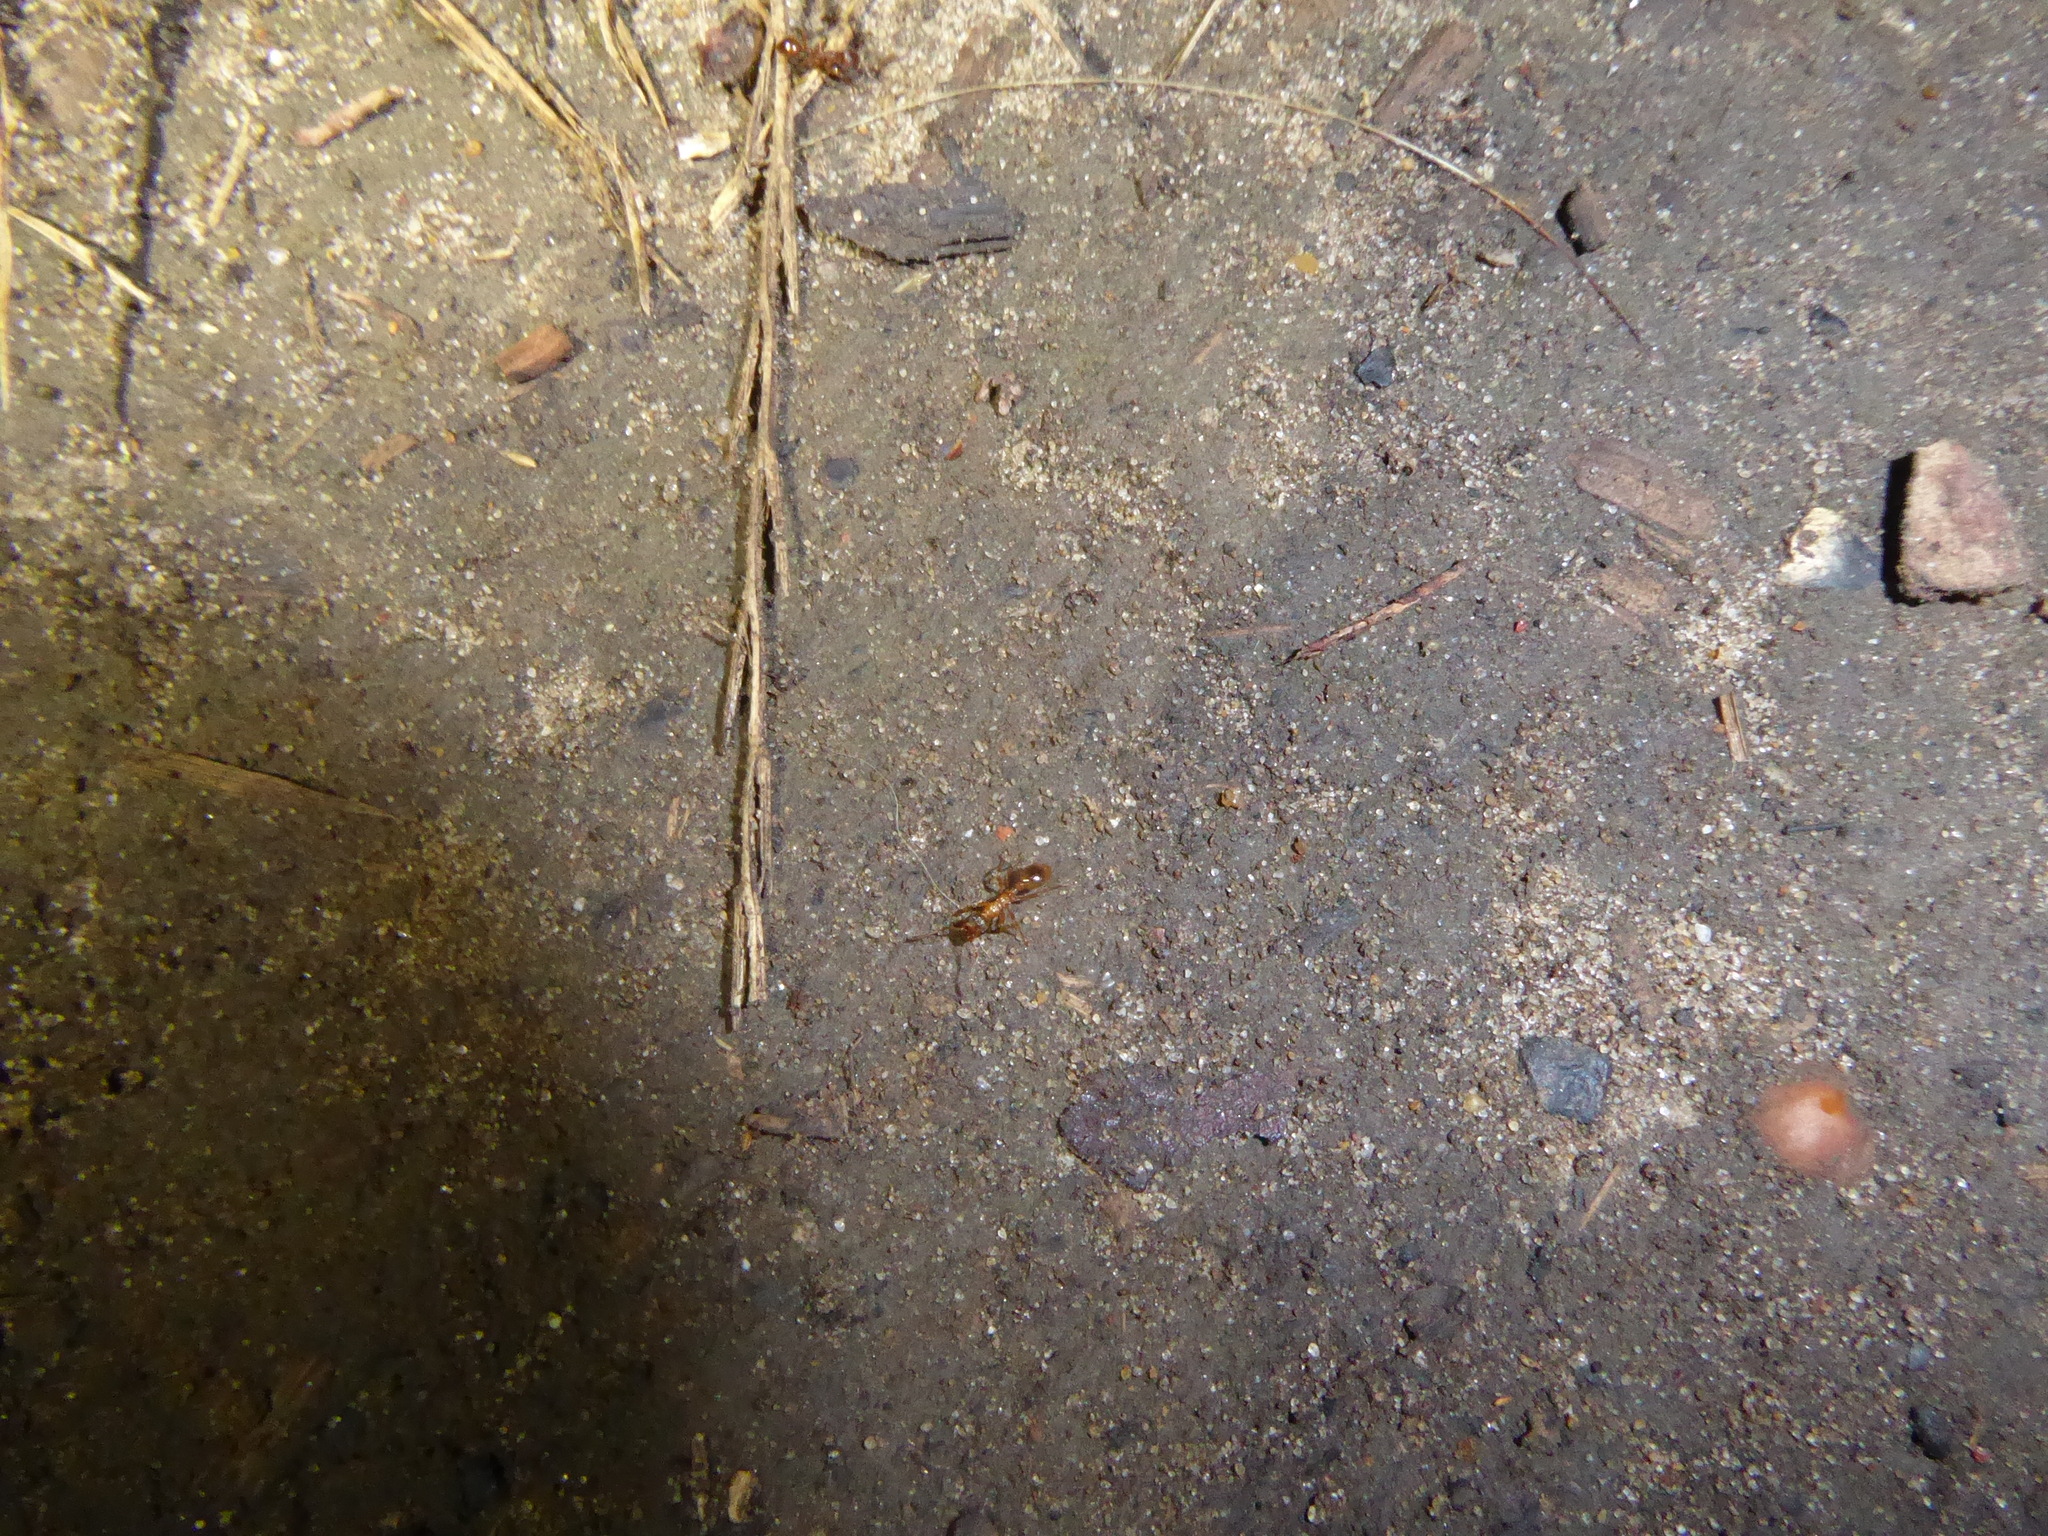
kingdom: Animalia
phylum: Arthropoda
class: Insecta
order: Hymenoptera
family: Formicidae
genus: Myrmica
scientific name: Myrmica
